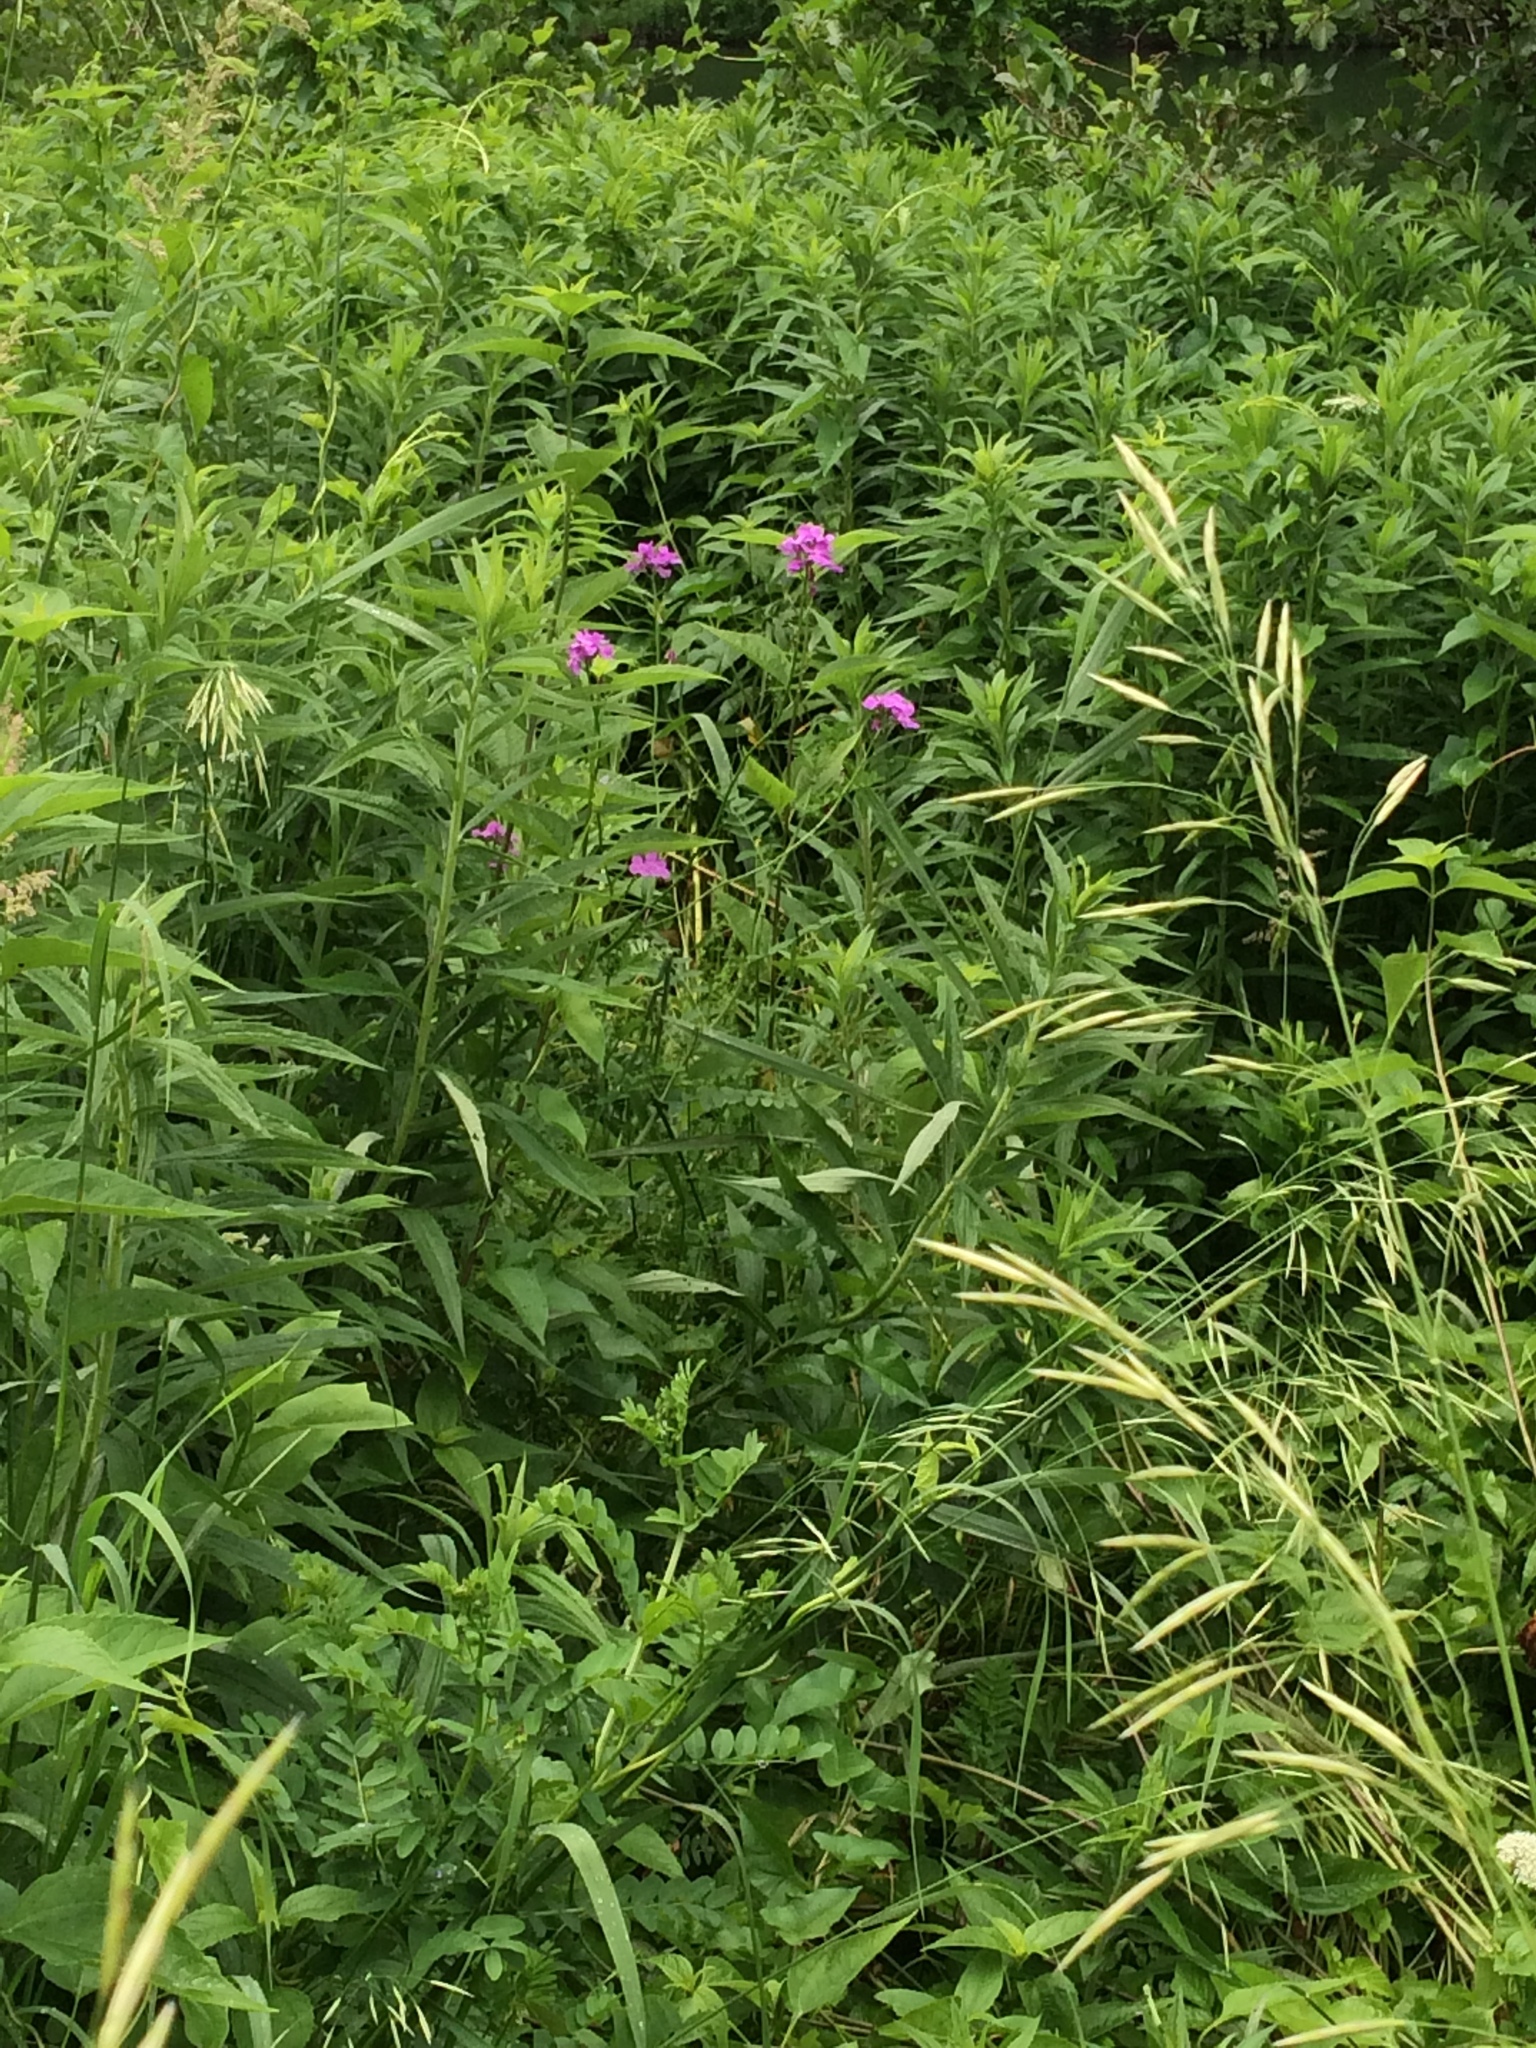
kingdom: Plantae
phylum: Tracheophyta
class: Magnoliopsida
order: Brassicales
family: Brassicaceae
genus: Hesperis
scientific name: Hesperis matronalis
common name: Dame's-violet
